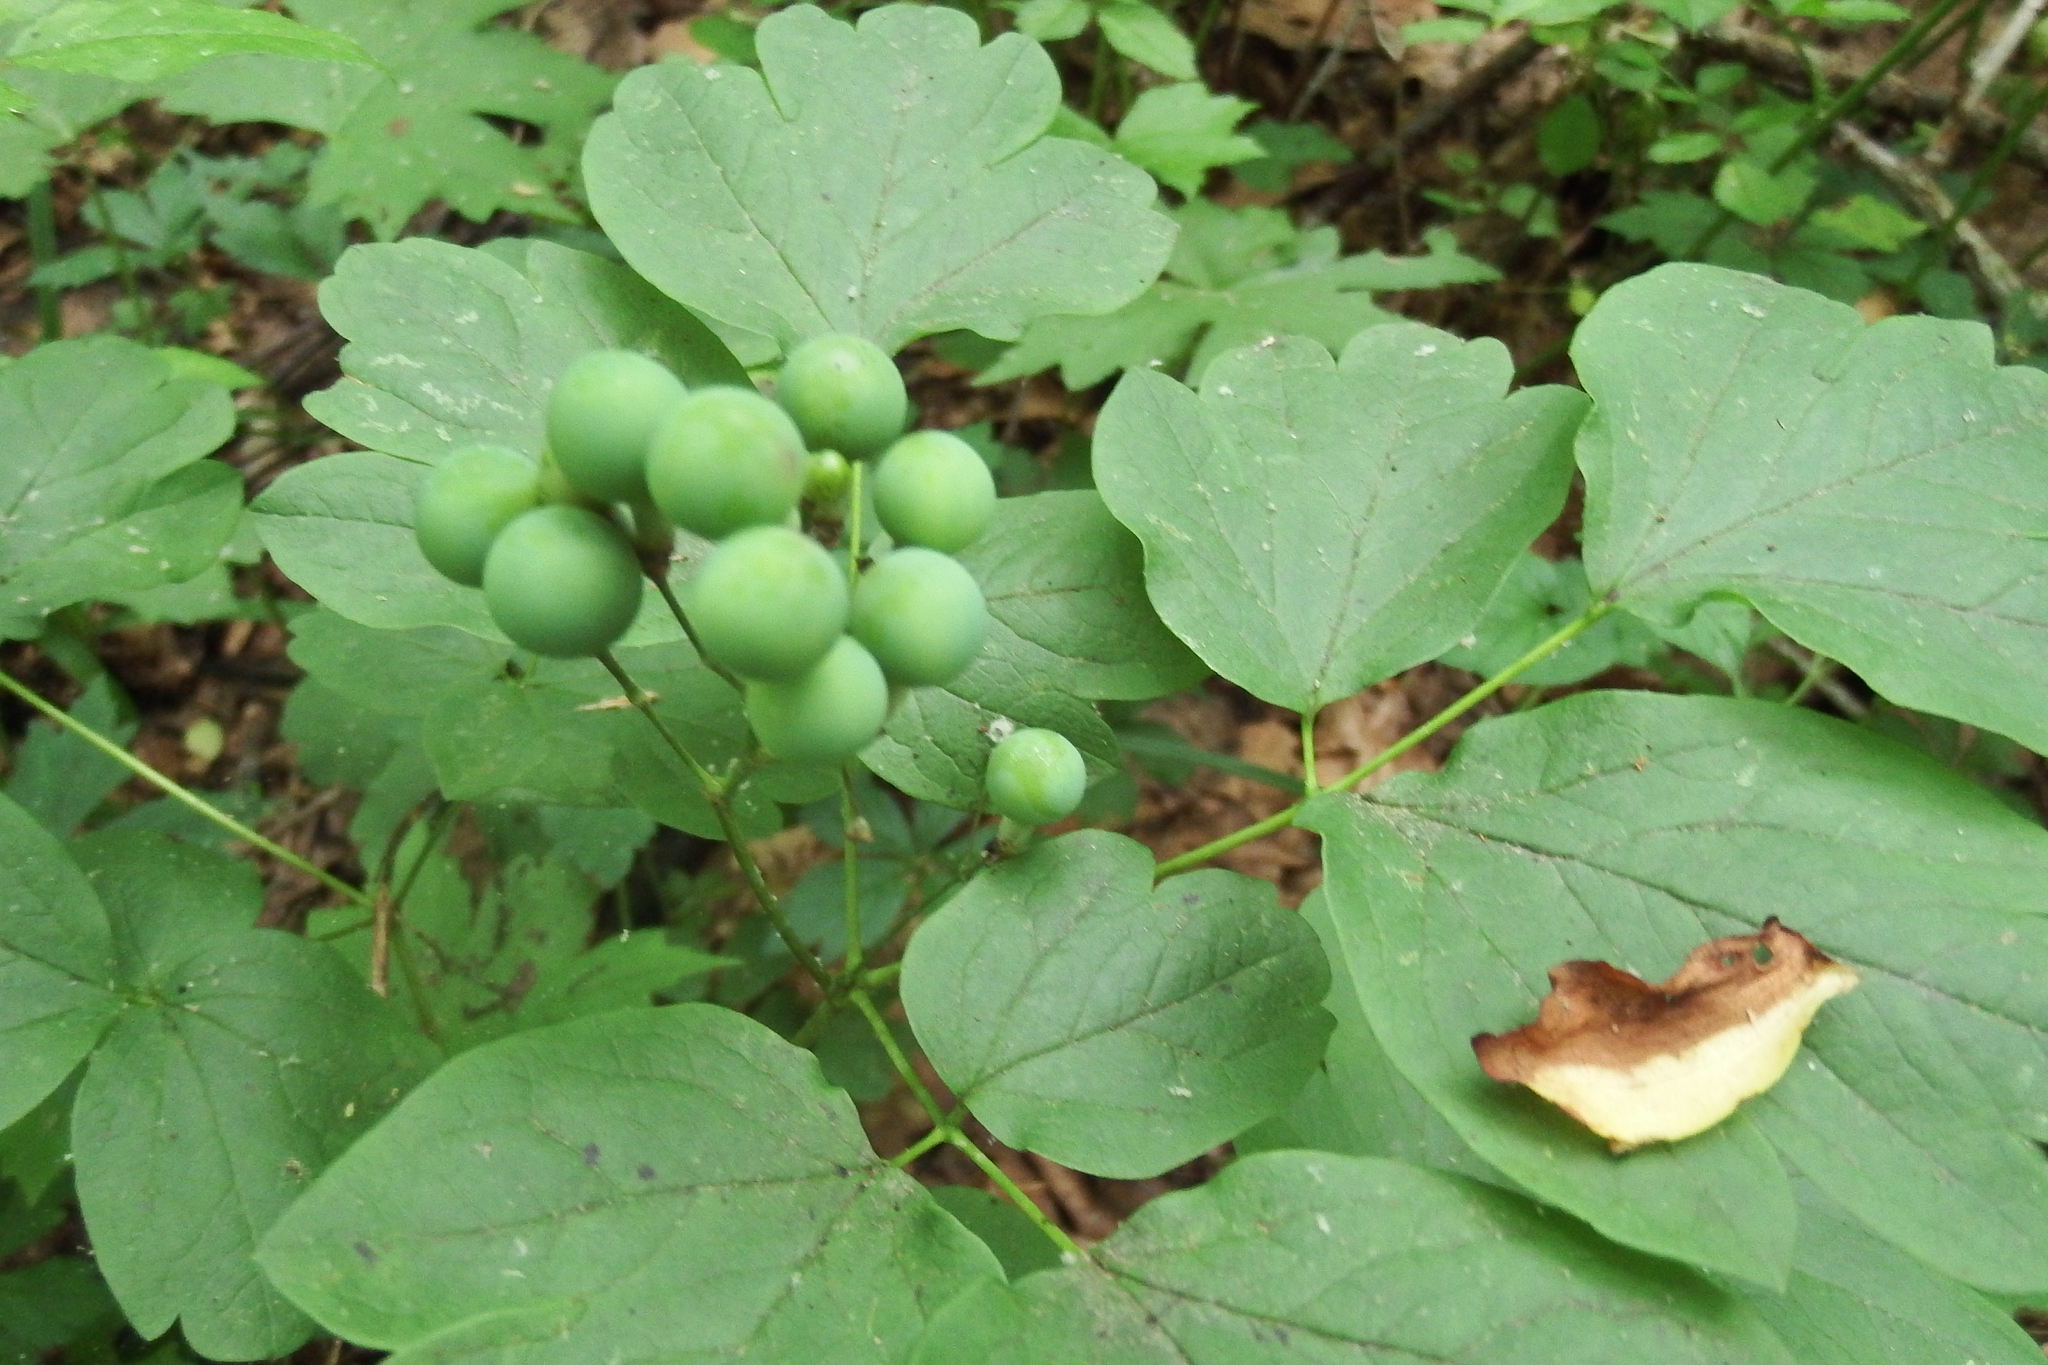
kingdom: Plantae
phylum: Tracheophyta
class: Magnoliopsida
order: Ranunculales
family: Berberidaceae
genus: Caulophyllum
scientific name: Caulophyllum thalictroides
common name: Blue cohosh
